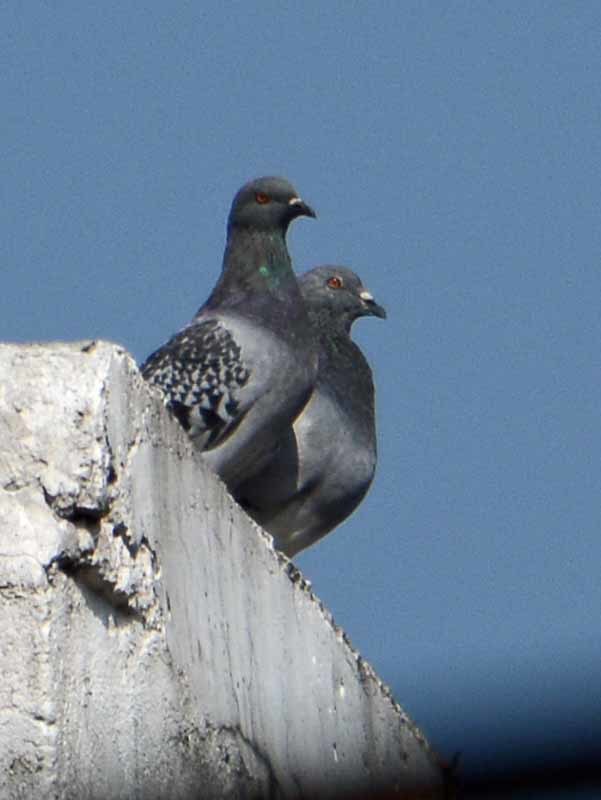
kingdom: Animalia
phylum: Chordata
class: Aves
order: Columbiformes
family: Columbidae
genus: Columba
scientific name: Columba livia
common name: Rock pigeon
